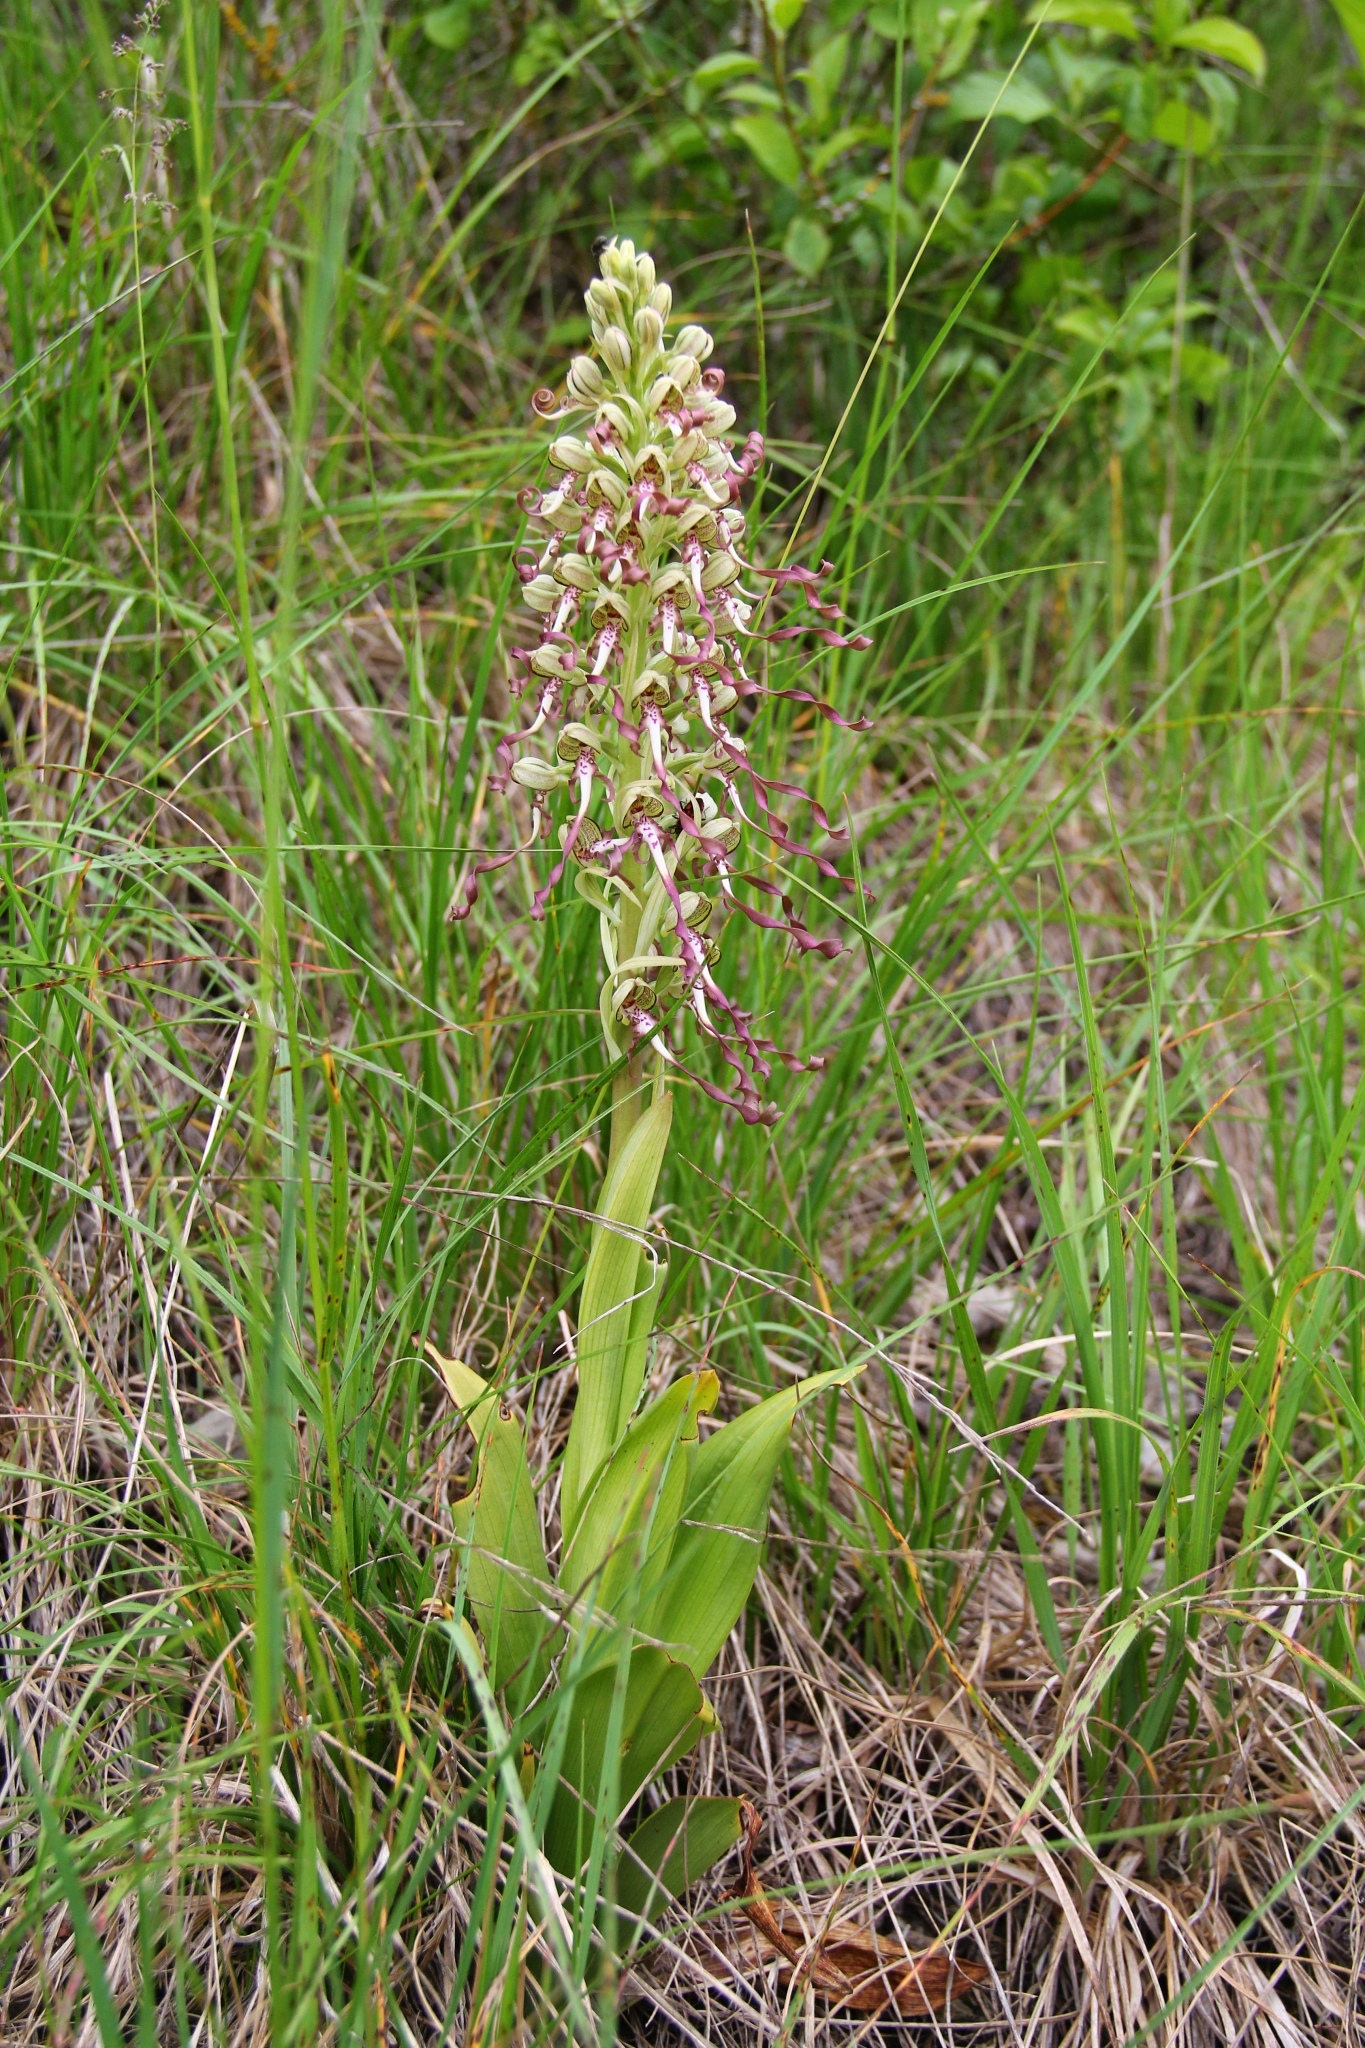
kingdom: Plantae
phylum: Tracheophyta
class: Liliopsida
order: Asparagales
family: Orchidaceae
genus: Himantoglossum
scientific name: Himantoglossum hircinum
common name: Lizard orchid
